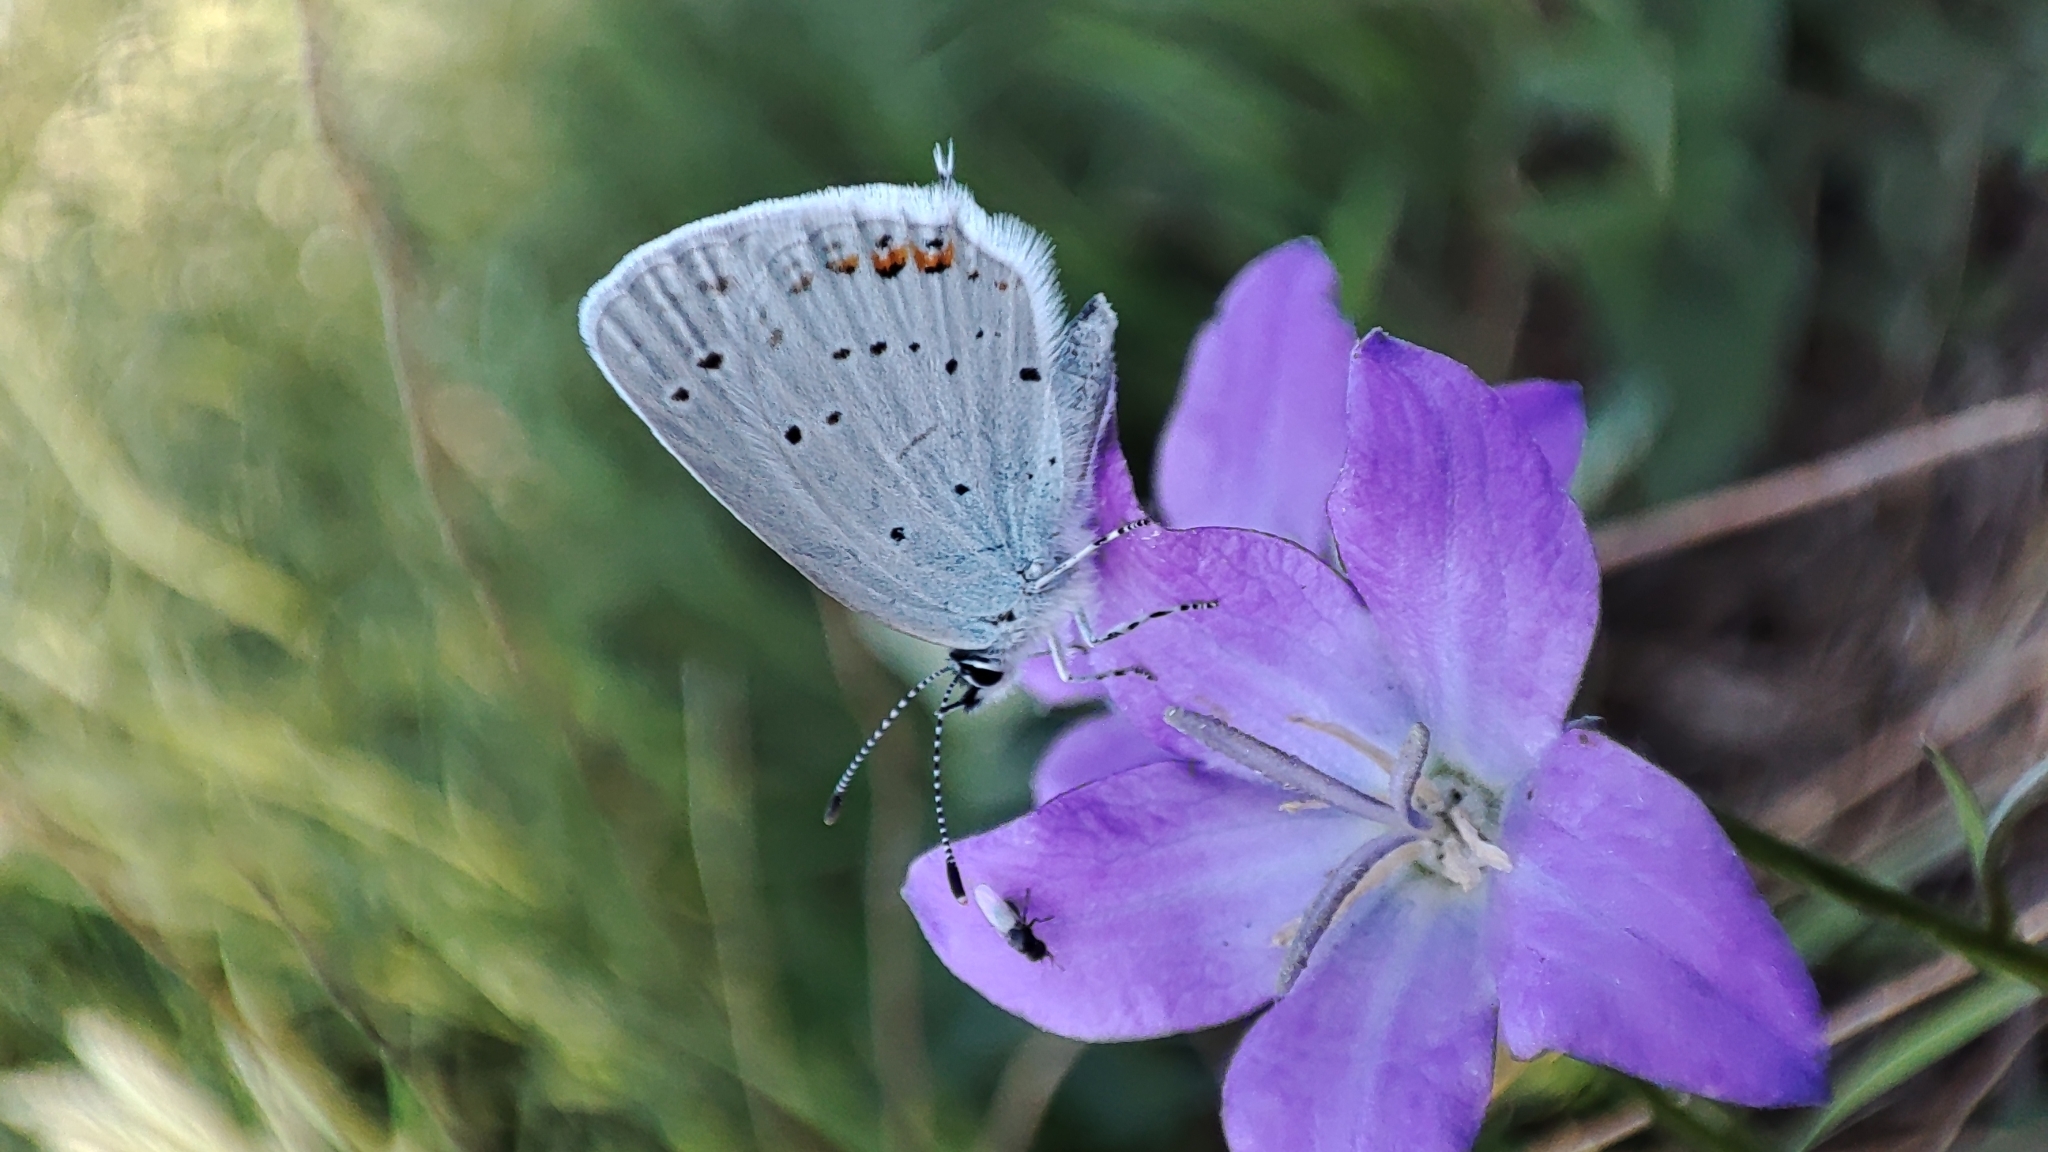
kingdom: Animalia
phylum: Arthropoda
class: Insecta
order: Lepidoptera
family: Lycaenidae
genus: Elkalyce
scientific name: Elkalyce argiades
